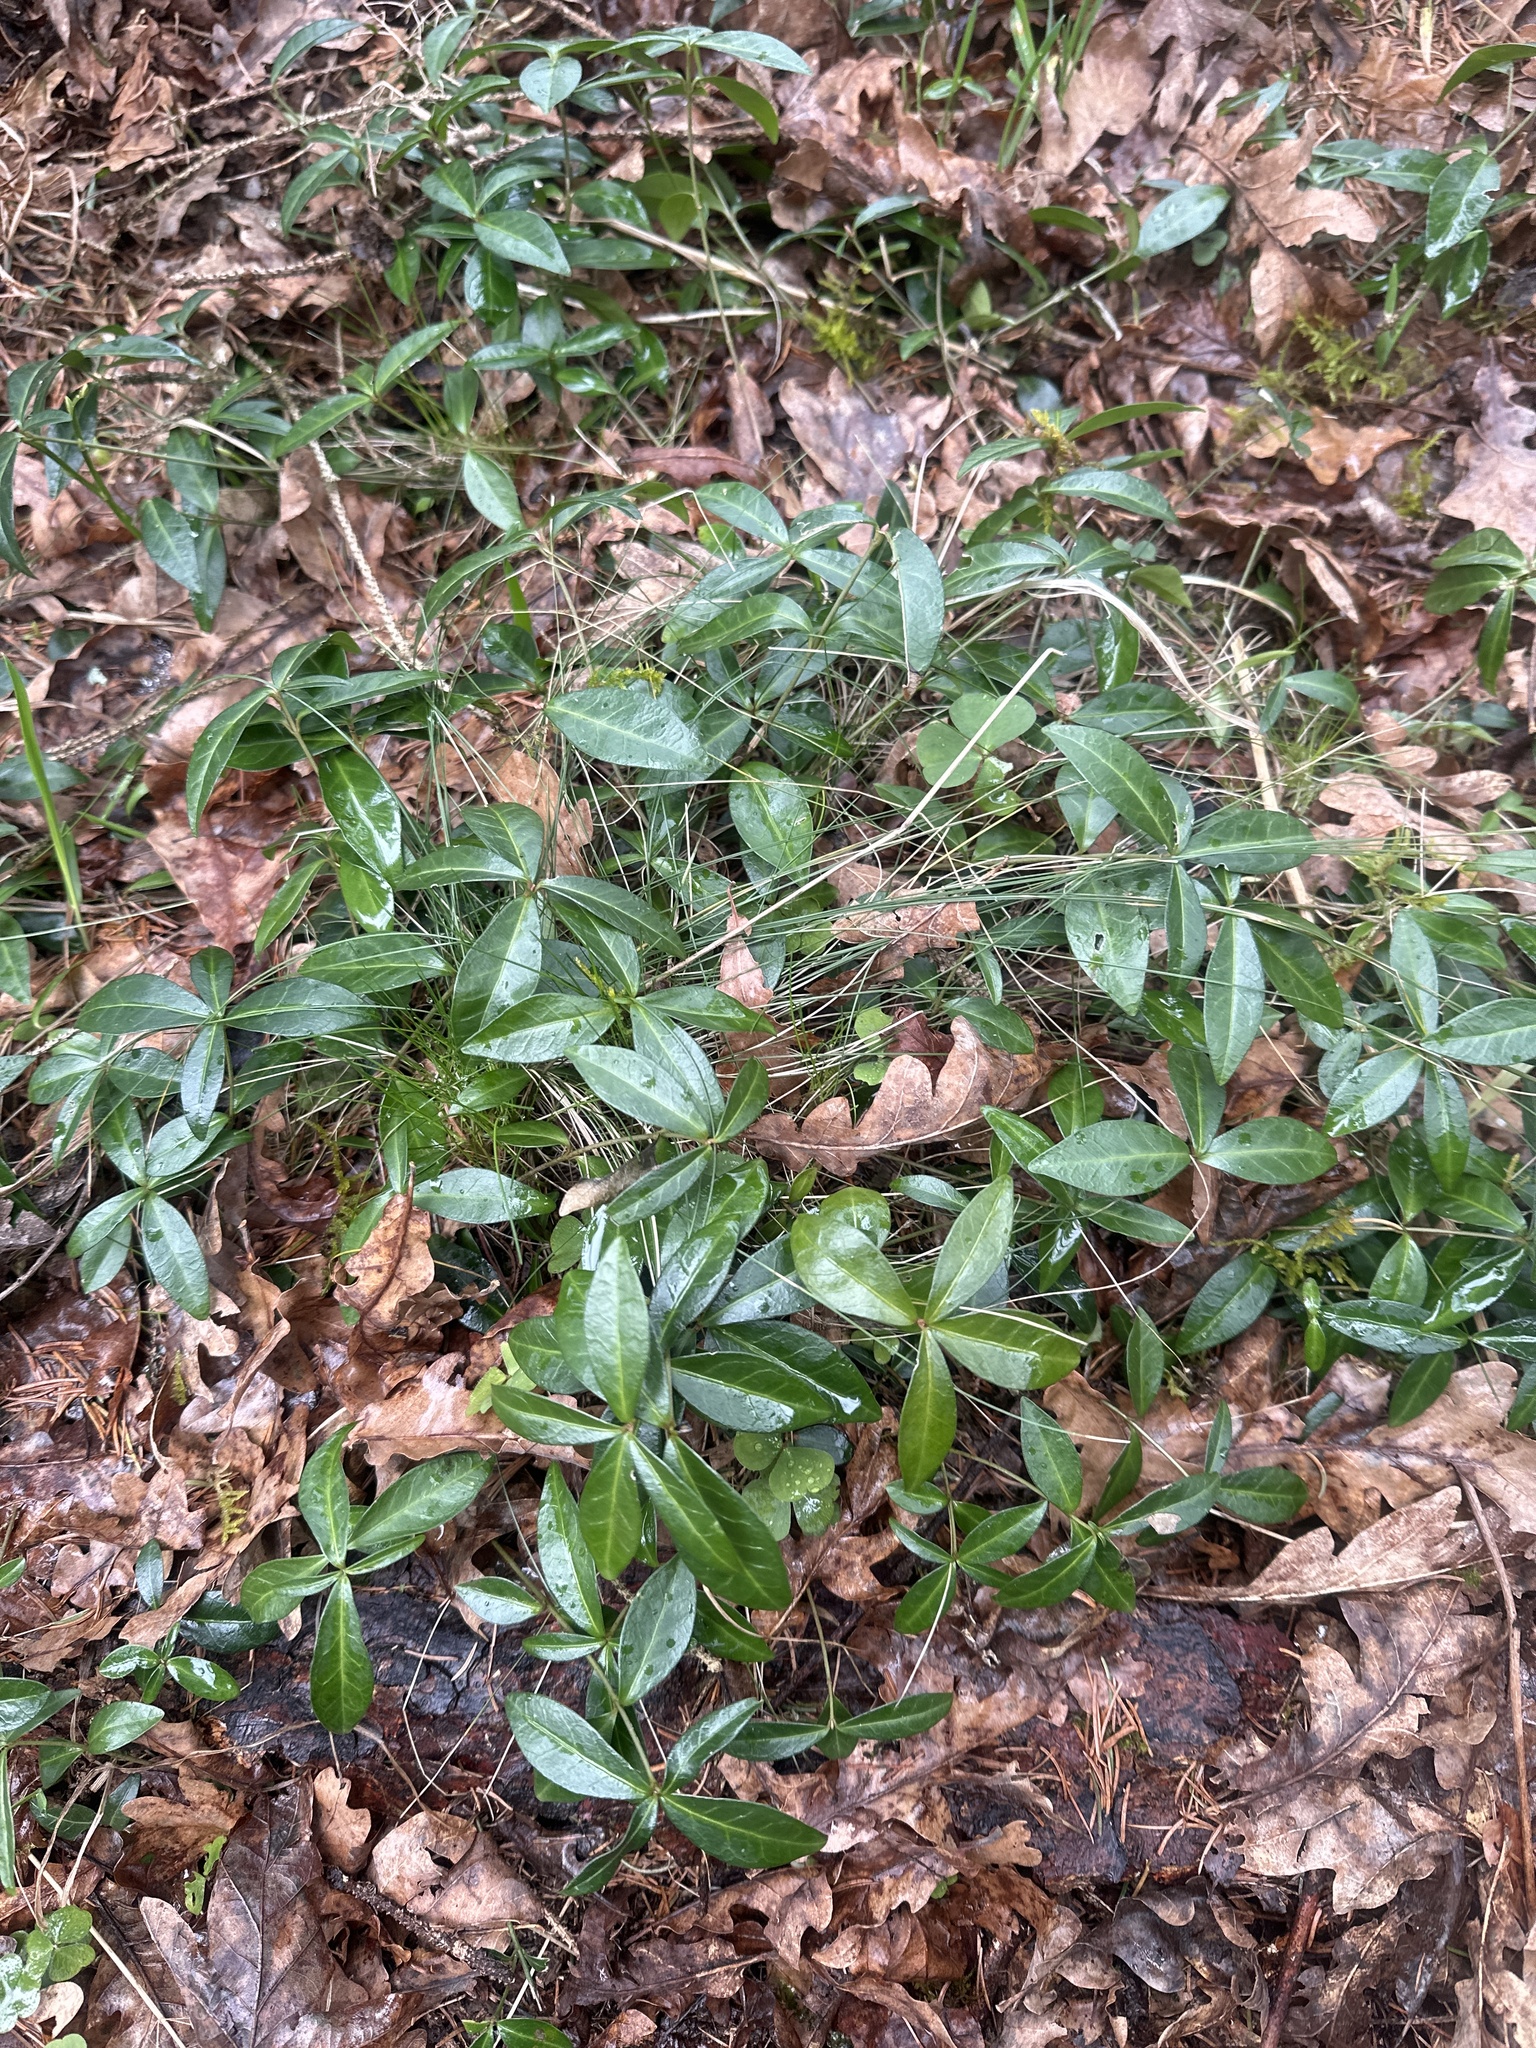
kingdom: Plantae
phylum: Tracheophyta
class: Magnoliopsida
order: Gentianales
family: Apocynaceae
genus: Vinca
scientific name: Vinca minor
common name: Lesser periwinkle
